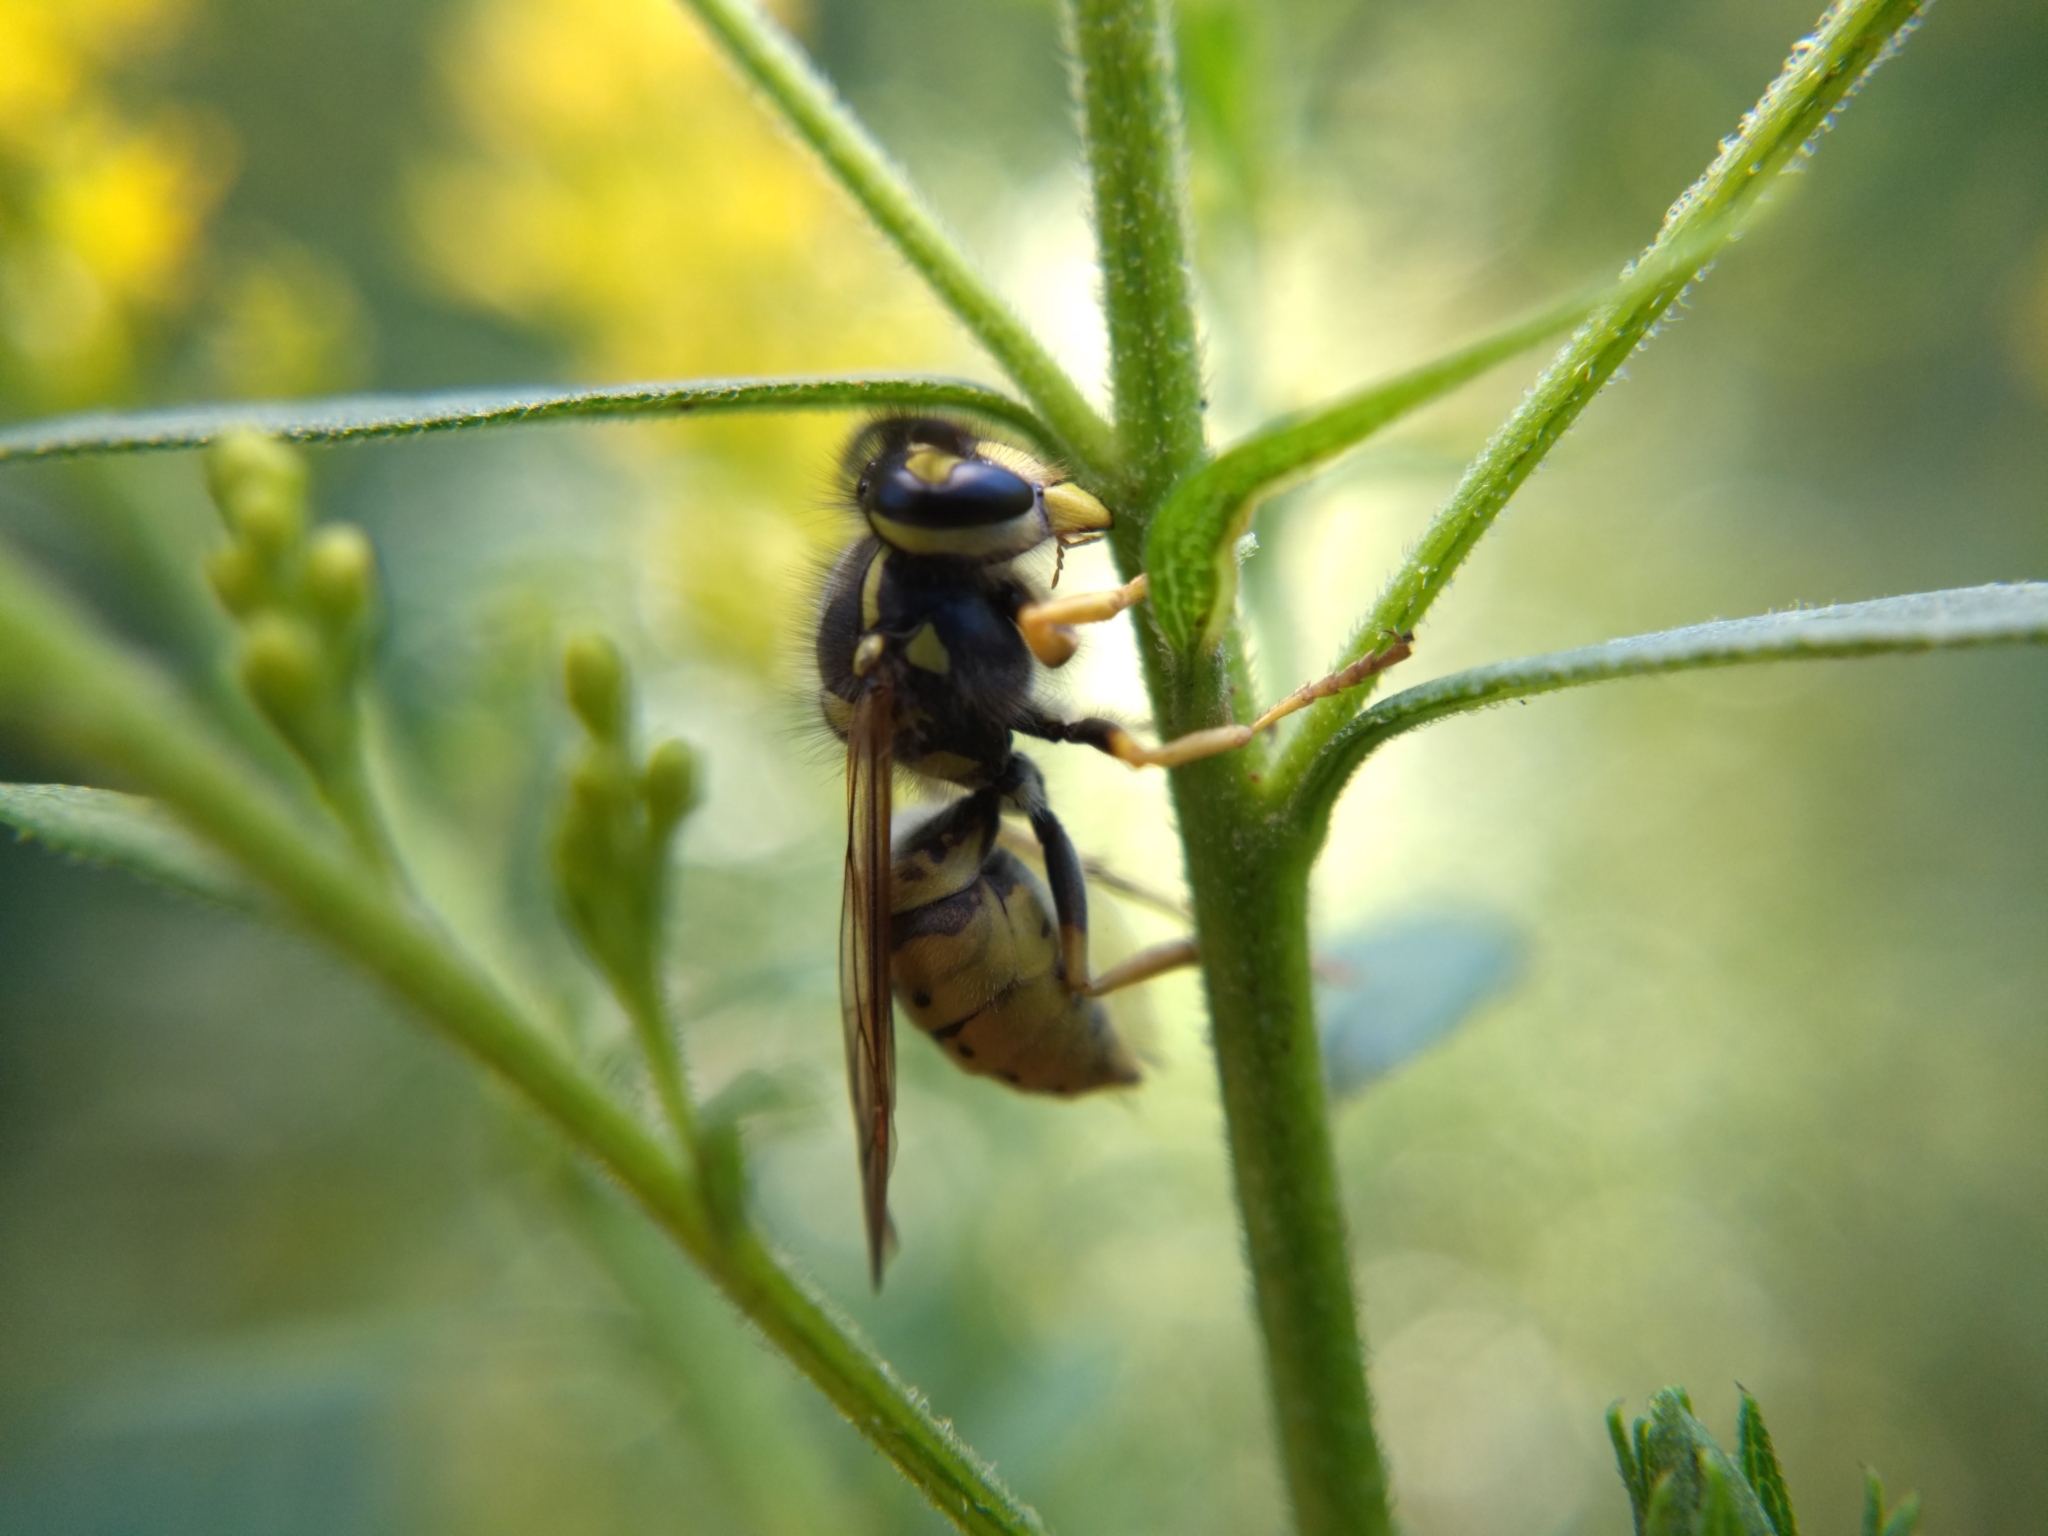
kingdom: Animalia
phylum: Arthropoda
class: Insecta
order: Hymenoptera
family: Vespidae
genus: Vespula
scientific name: Vespula
